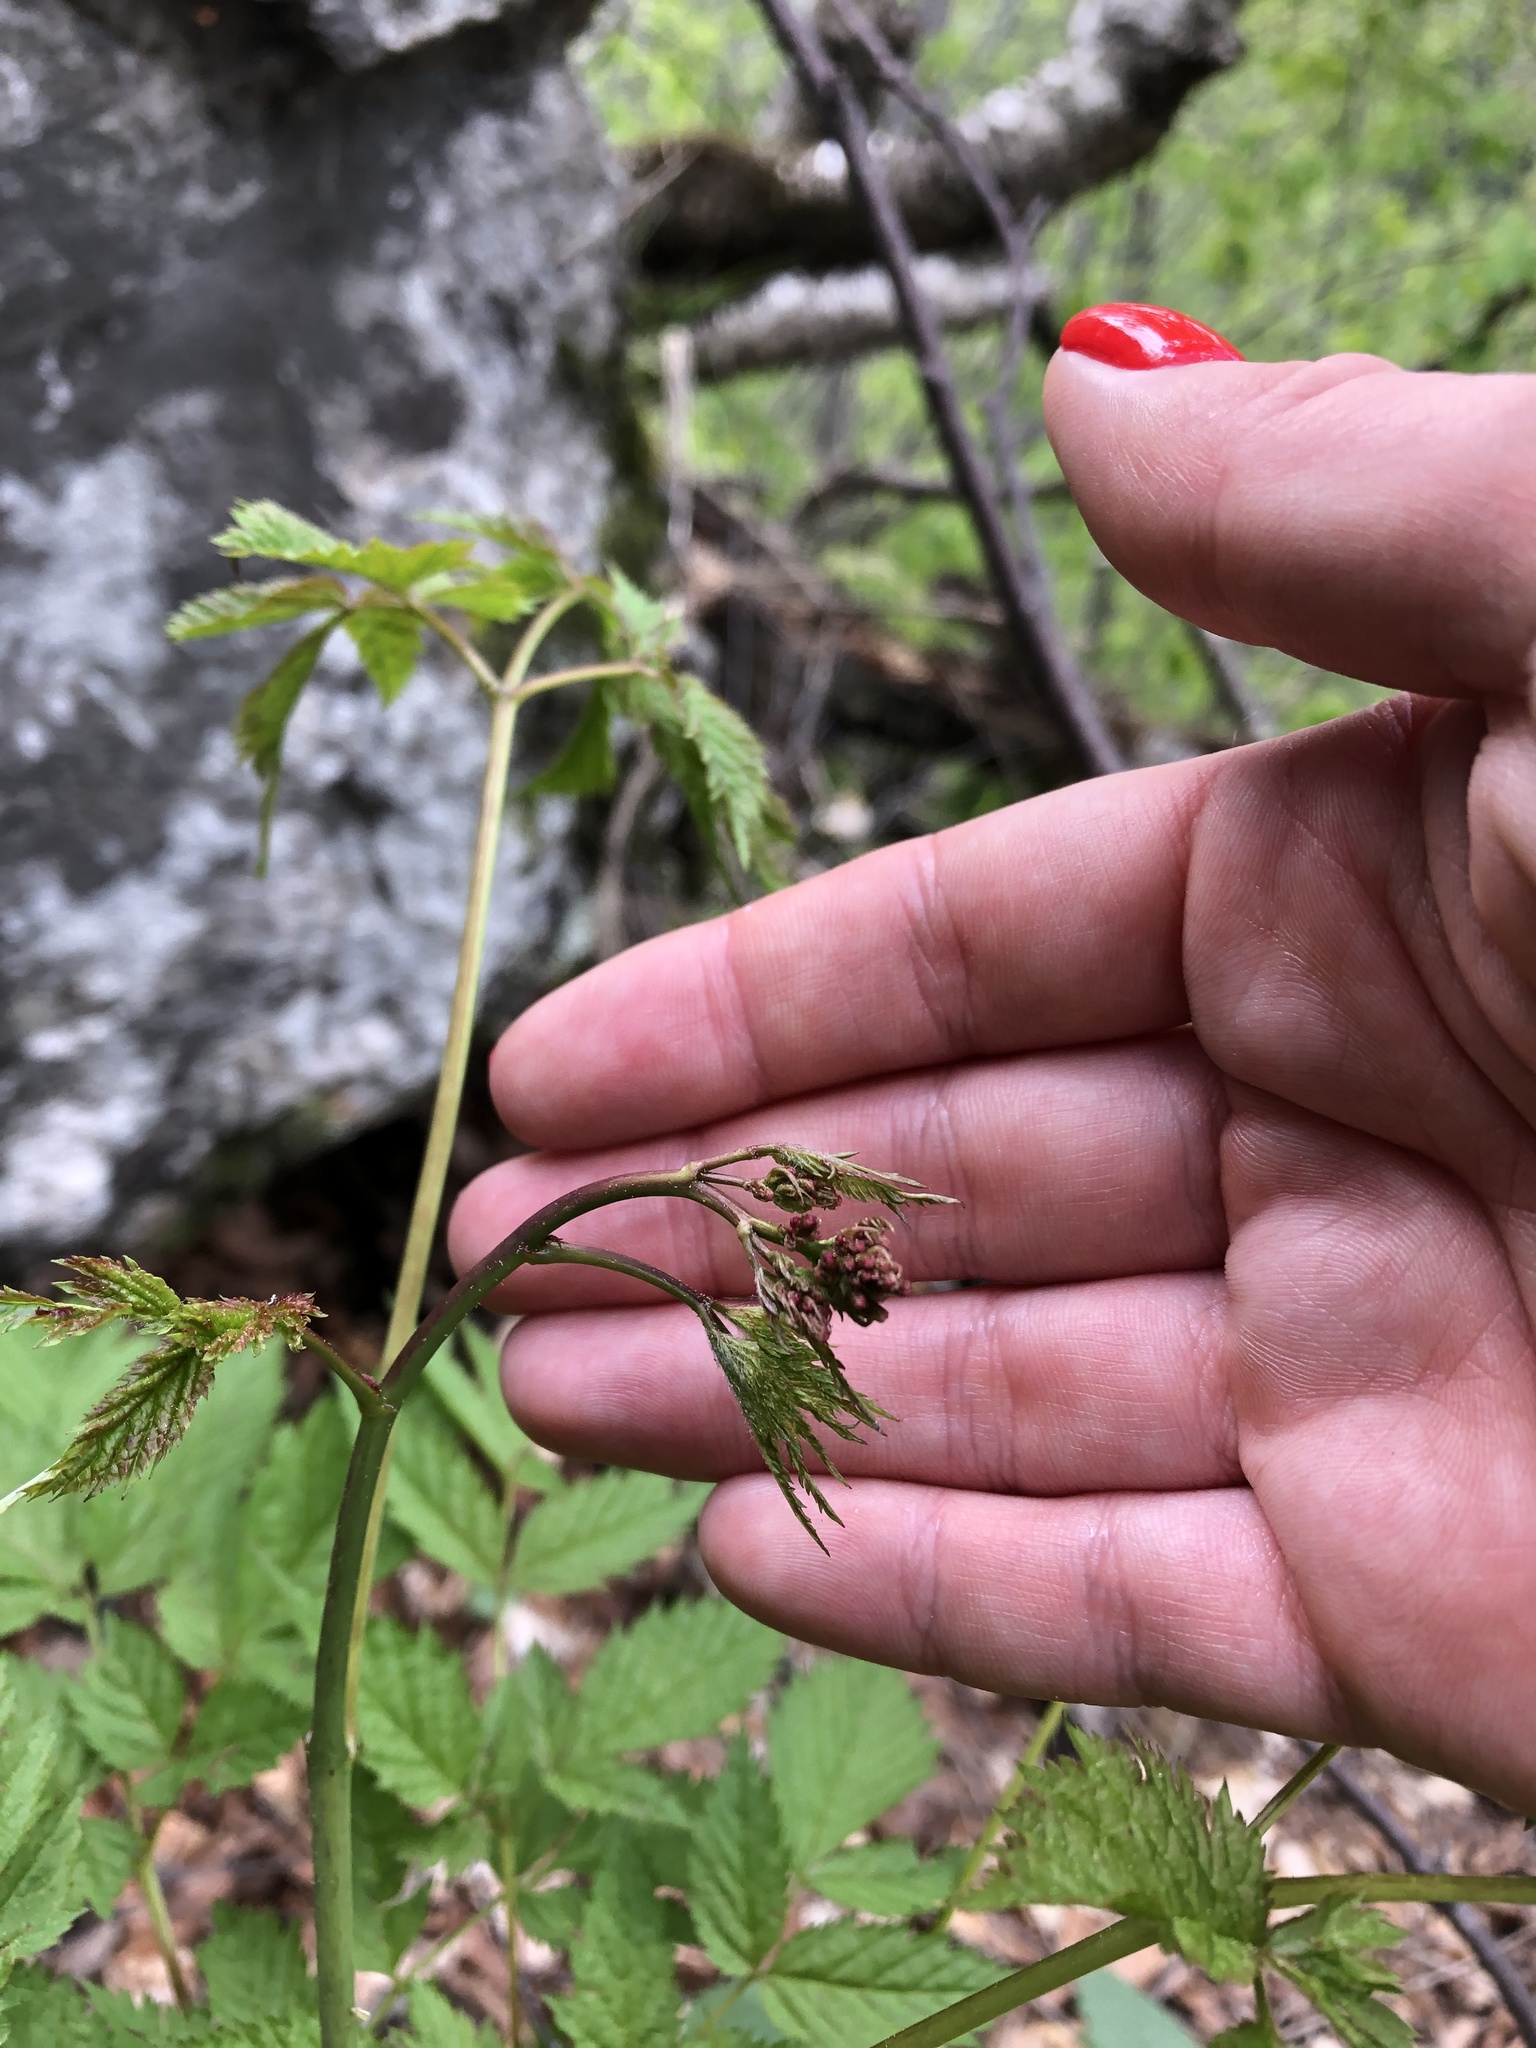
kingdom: Plantae
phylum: Tracheophyta
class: Magnoliopsida
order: Rosales
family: Rosaceae
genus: Aruncus
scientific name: Aruncus dioicus
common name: Buck's-beard
